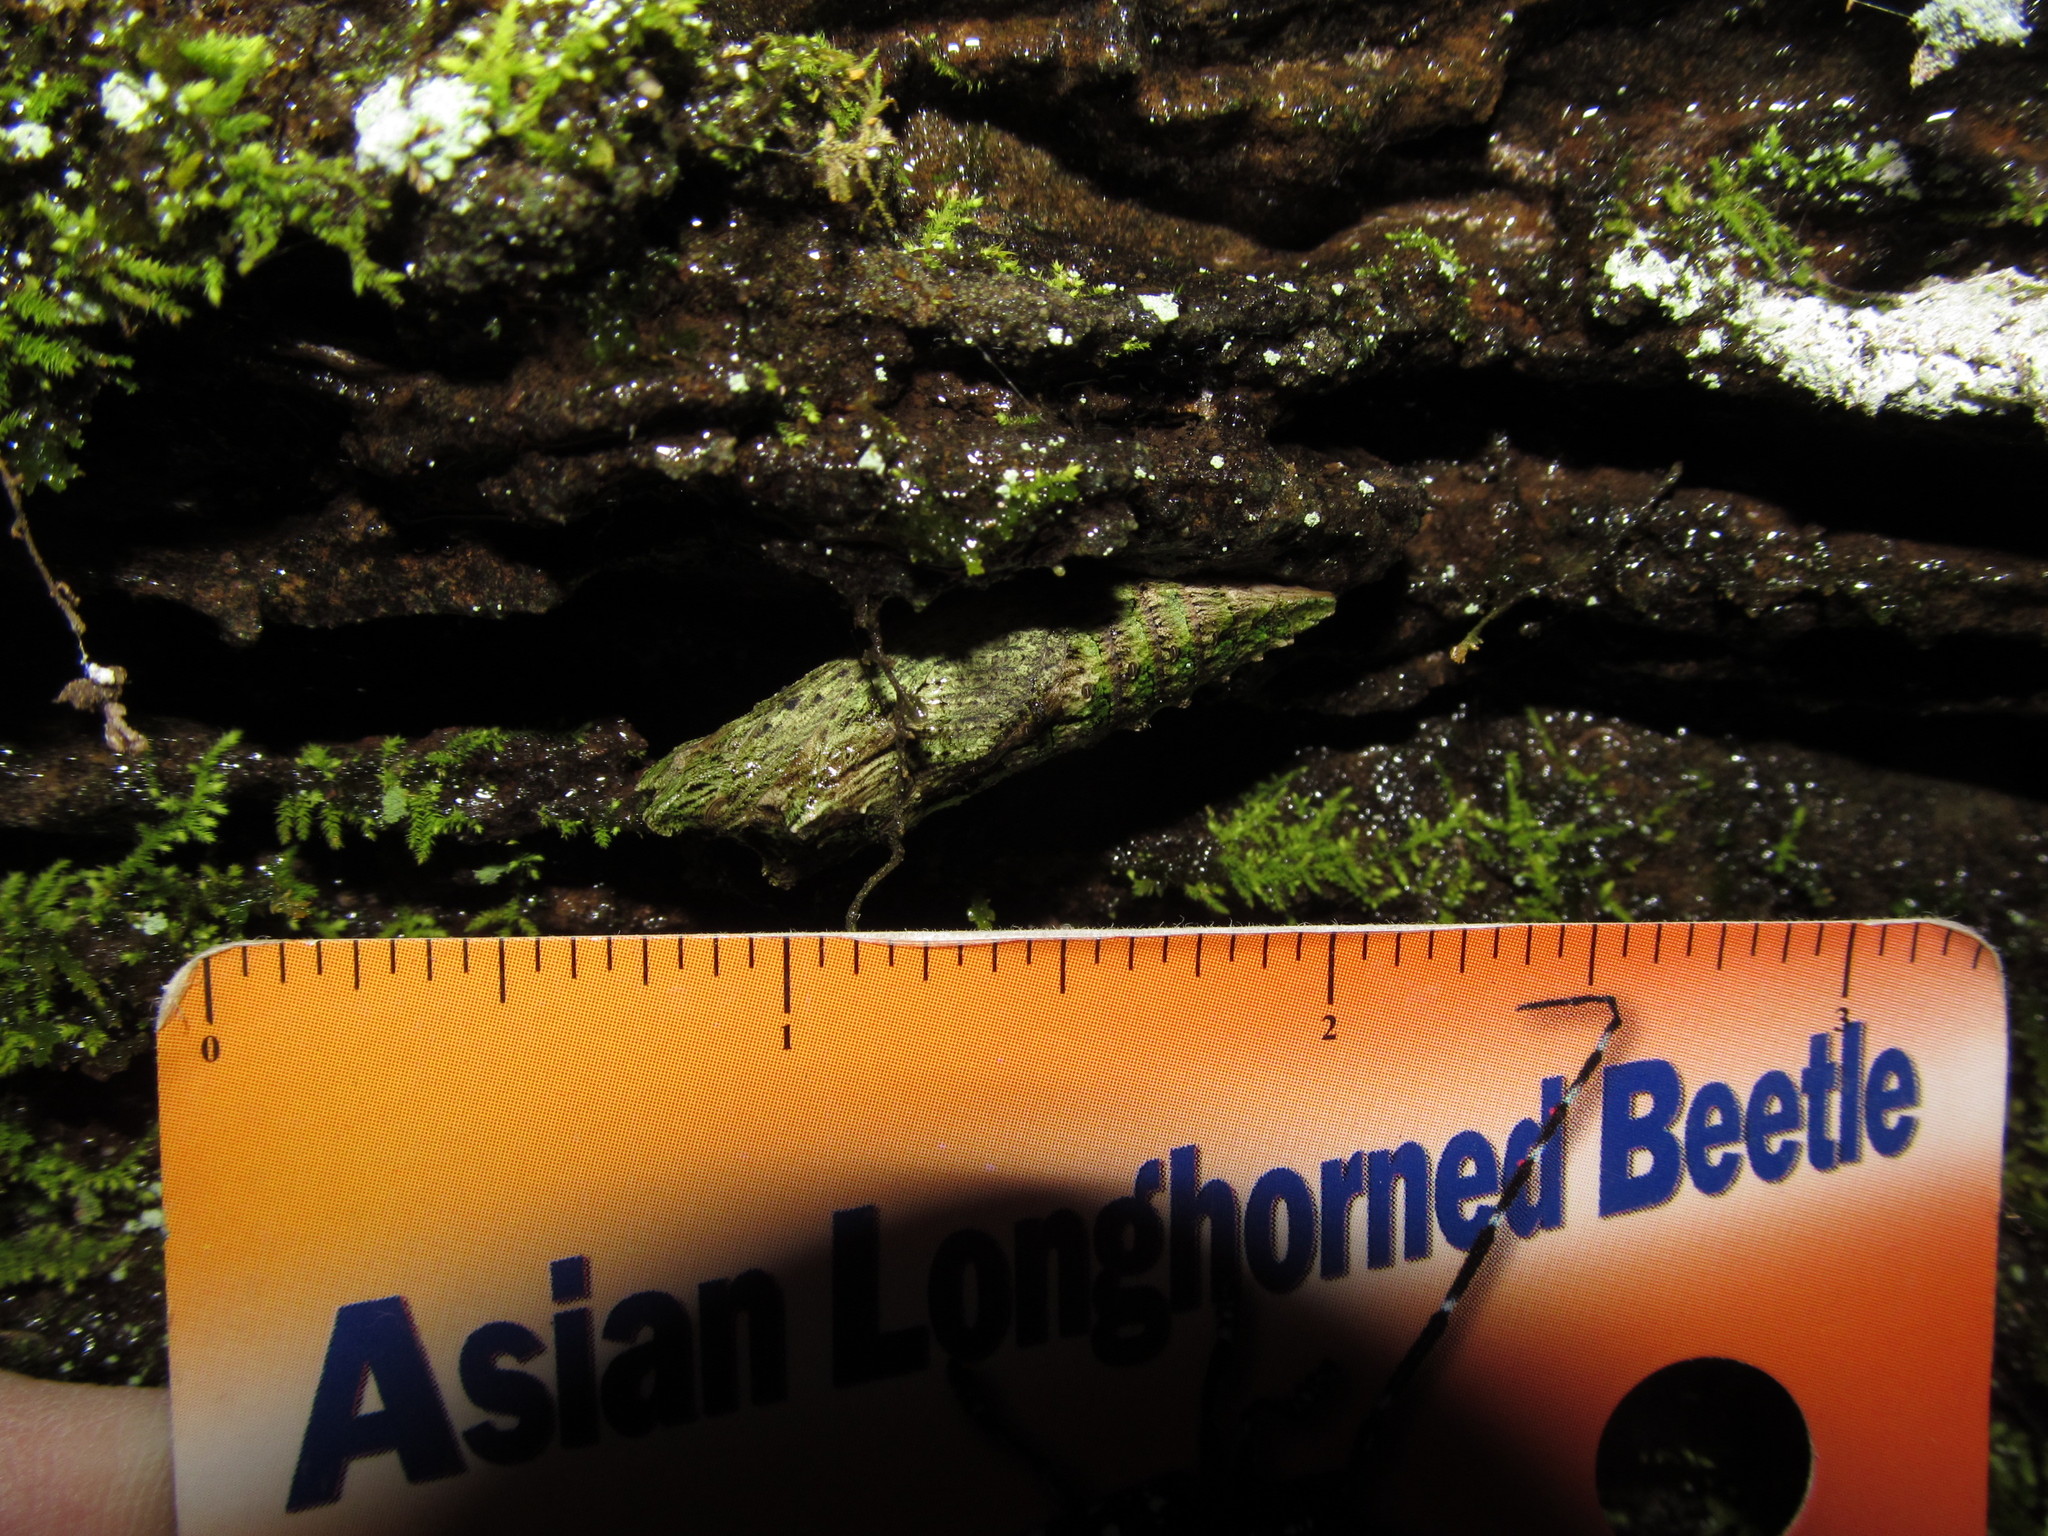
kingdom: Animalia
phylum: Arthropoda
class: Insecta
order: Lepidoptera
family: Papilionidae
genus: Papilio
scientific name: Papilio glaucus
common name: Tiger swallowtail
